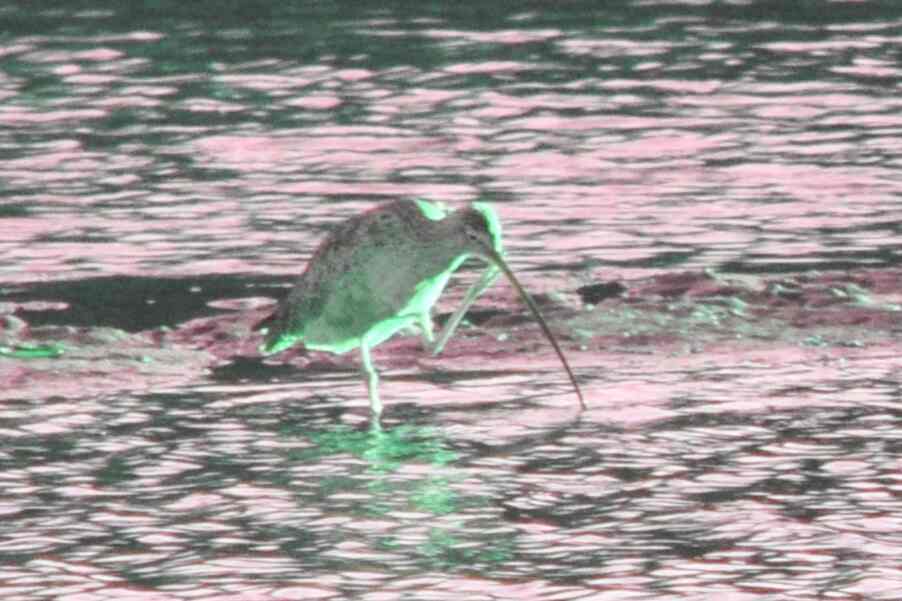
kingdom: Animalia
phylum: Chordata
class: Aves
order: Charadriiformes
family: Scolopacidae
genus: Numenius
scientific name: Numenius americanus
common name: Long-billed curlew
